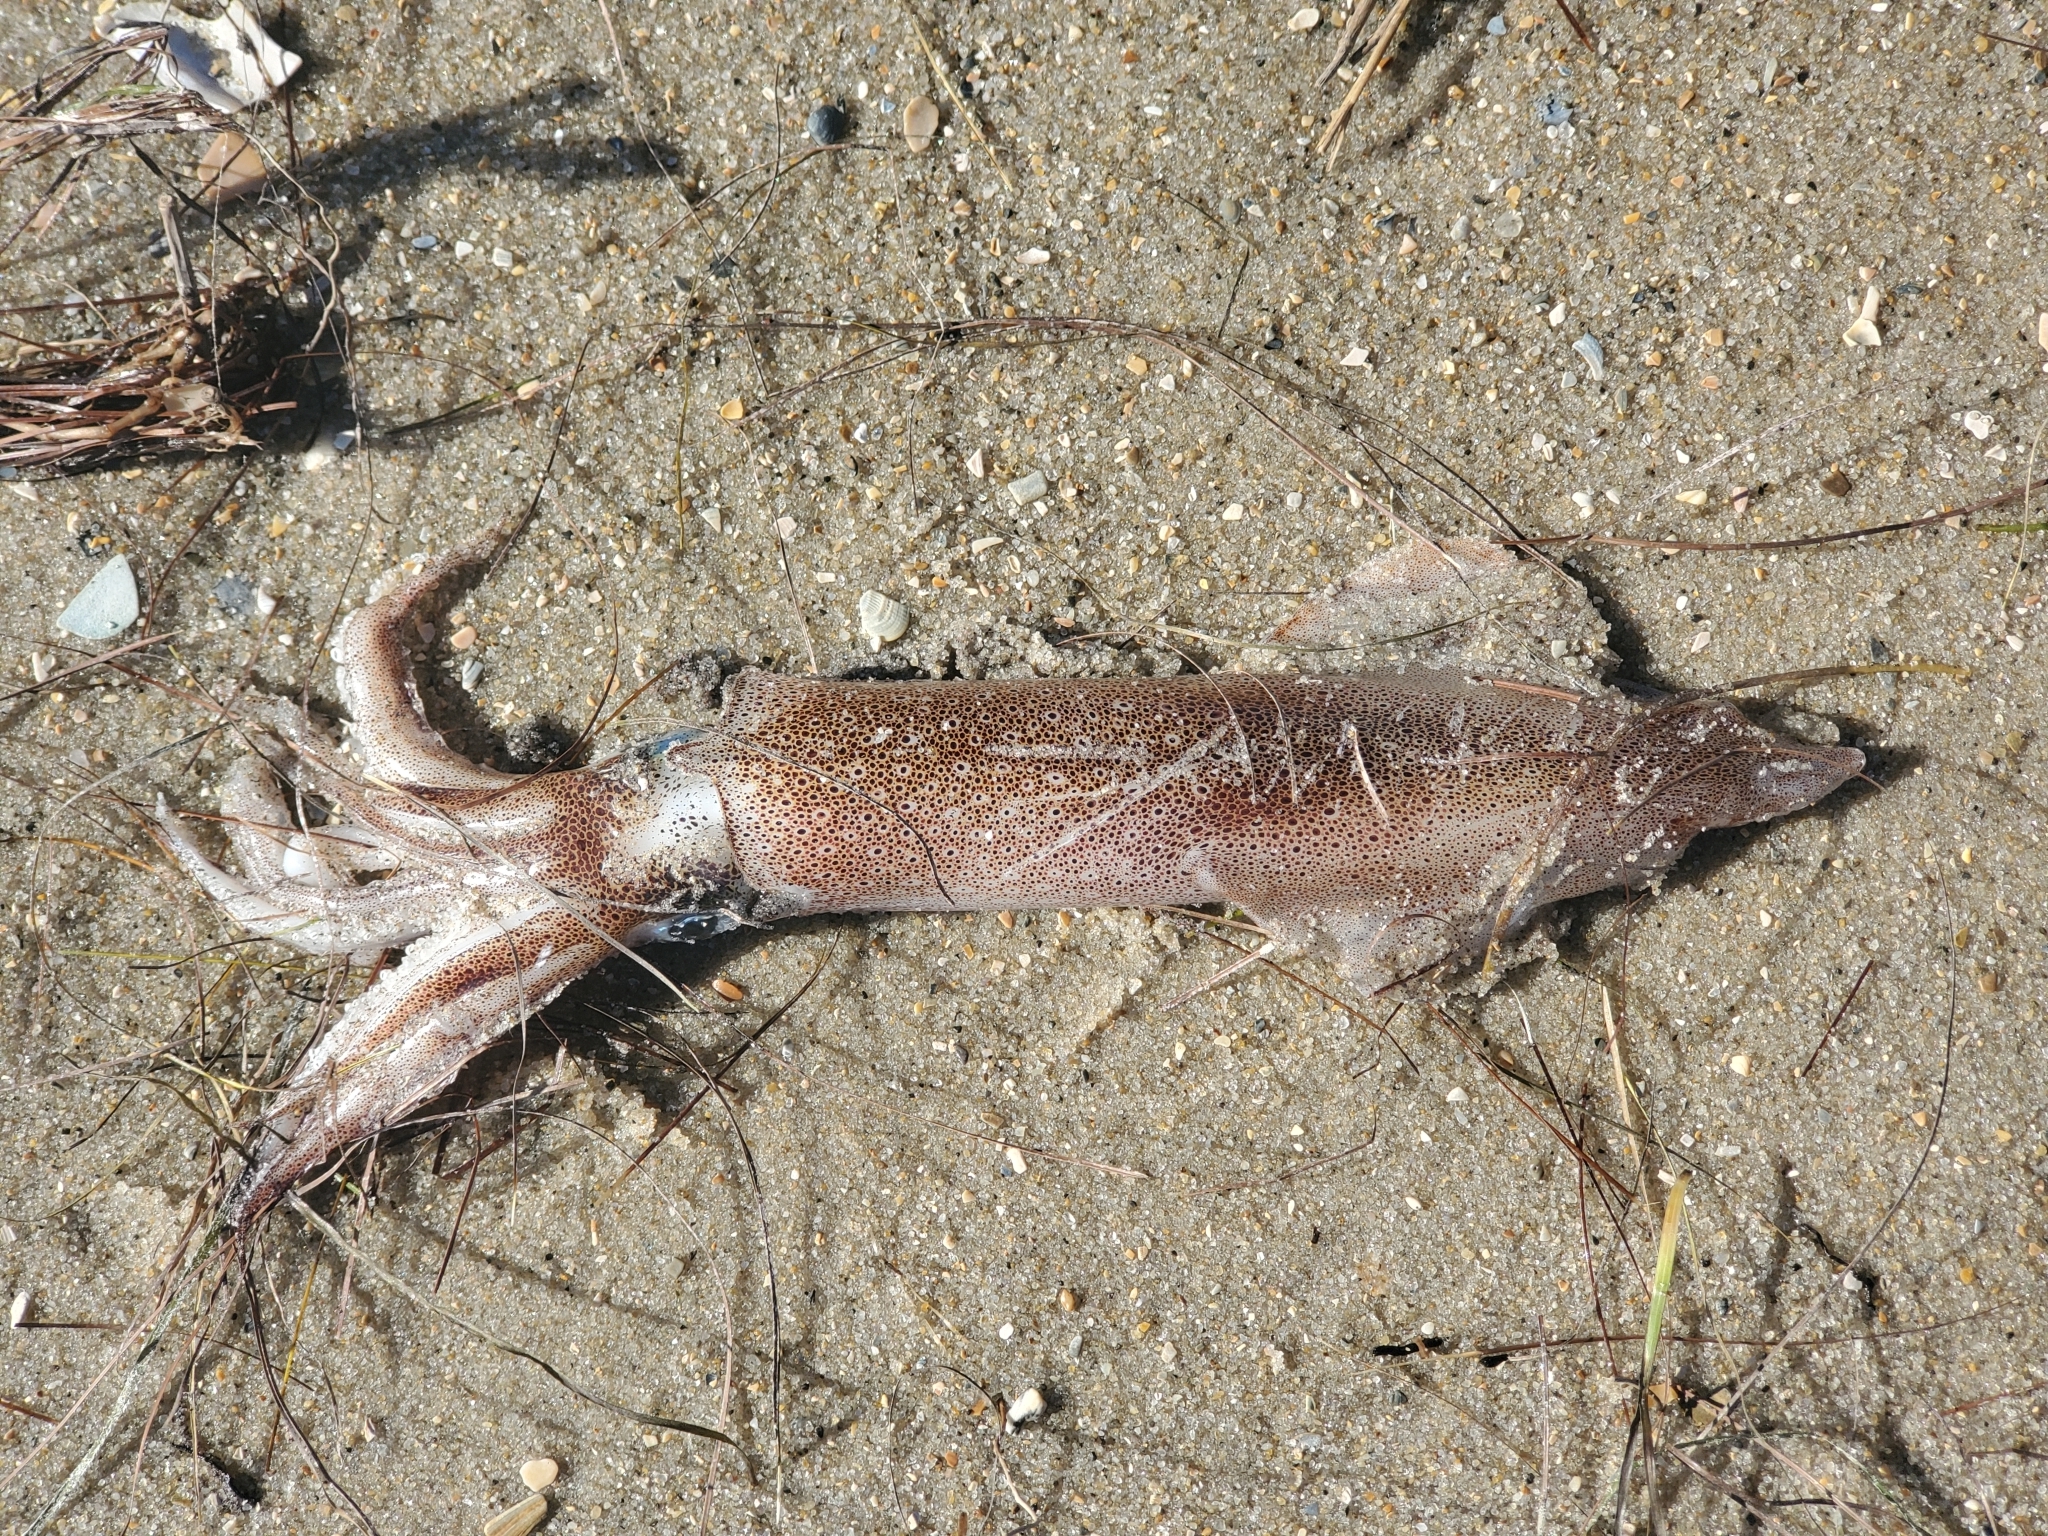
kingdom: Animalia
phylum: Mollusca
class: Cephalopoda
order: Myopsida
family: Loliginidae
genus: Doryteuthis
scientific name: Doryteuthis pealeii
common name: Long-finned inshore squid
